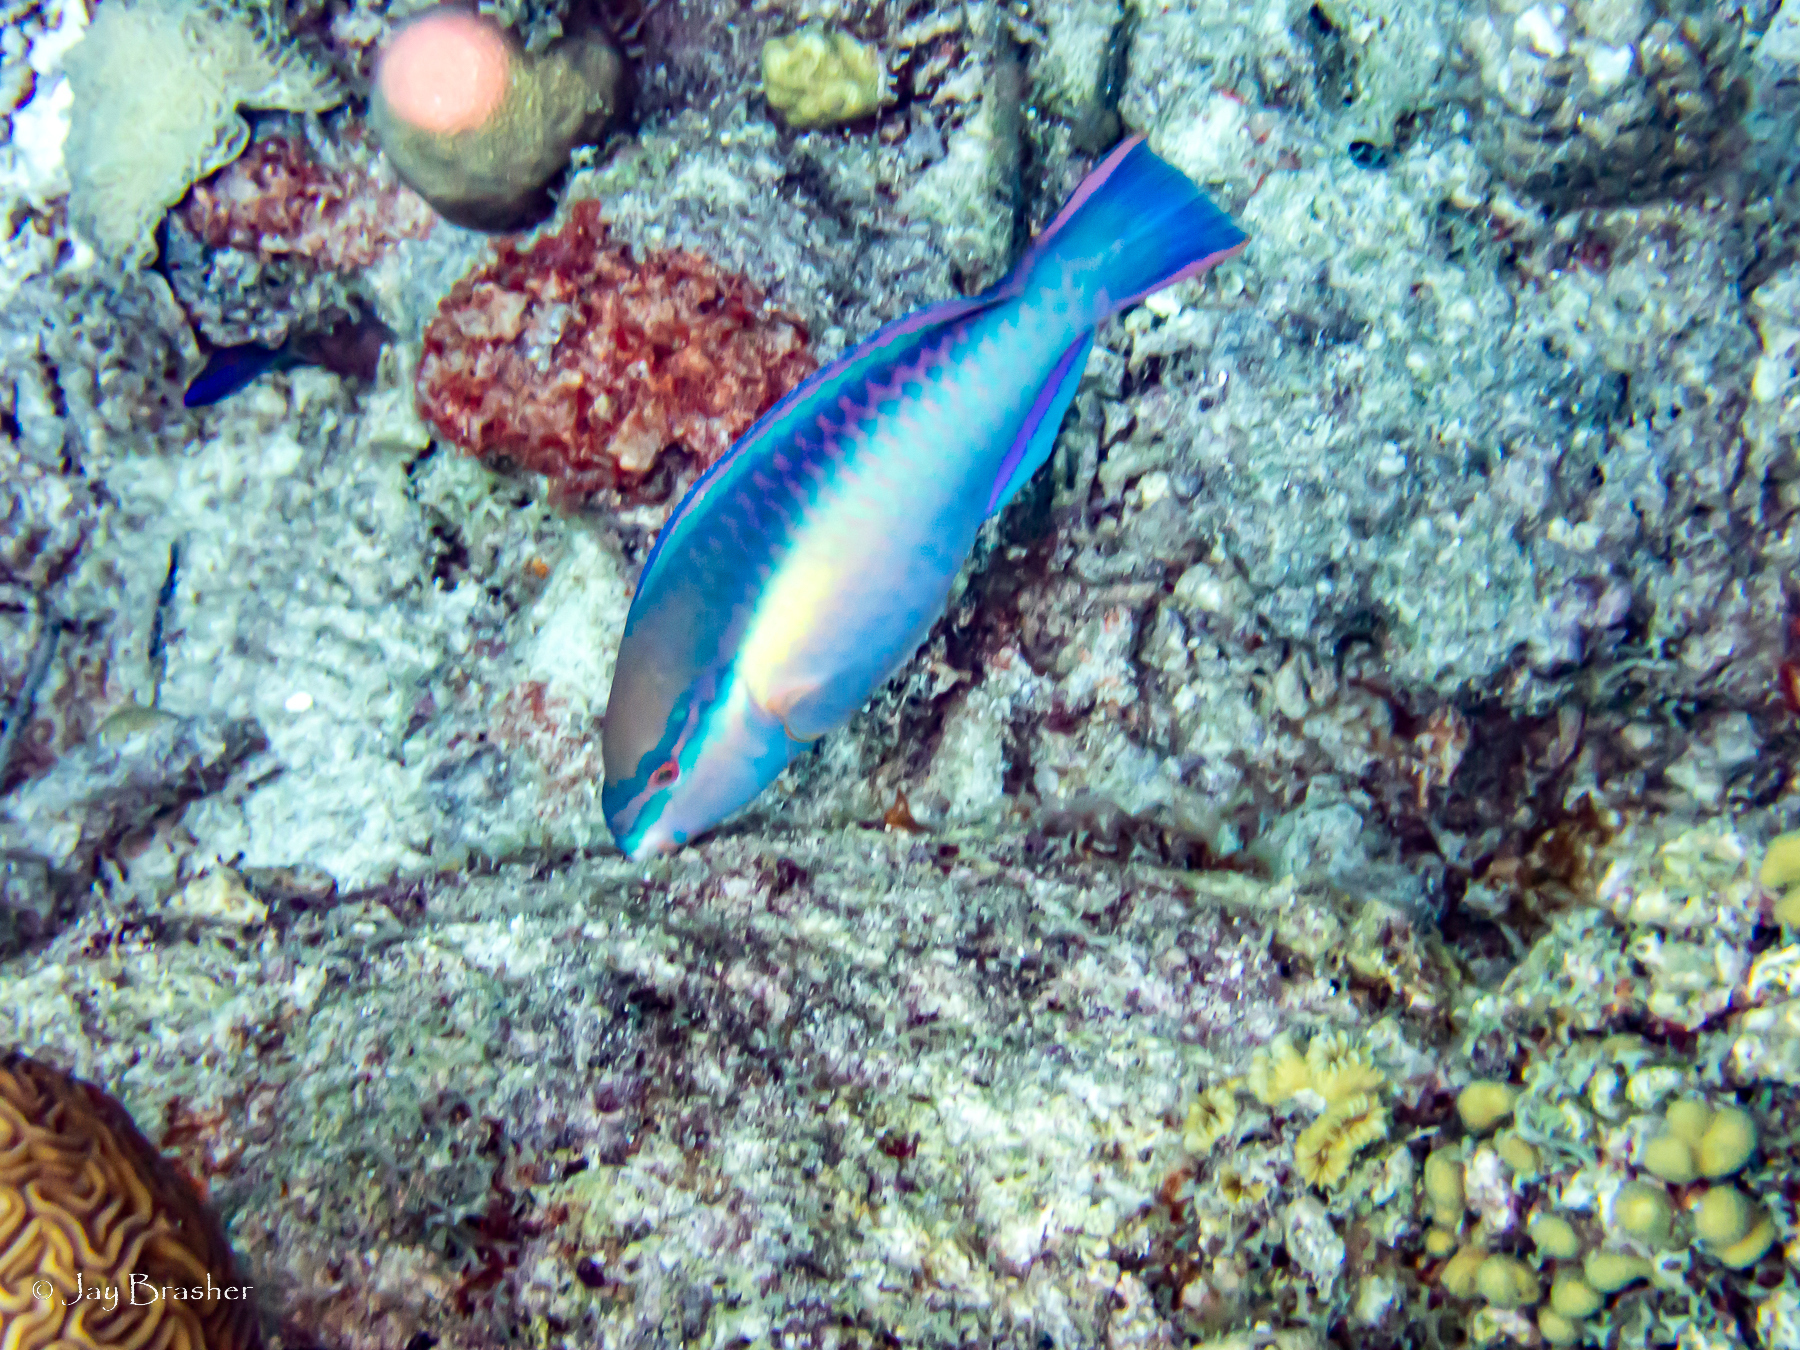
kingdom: Animalia
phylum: Chordata
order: Perciformes
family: Scaridae
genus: Scarus
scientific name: Scarus taeniopterus
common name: Princess parrotfish
